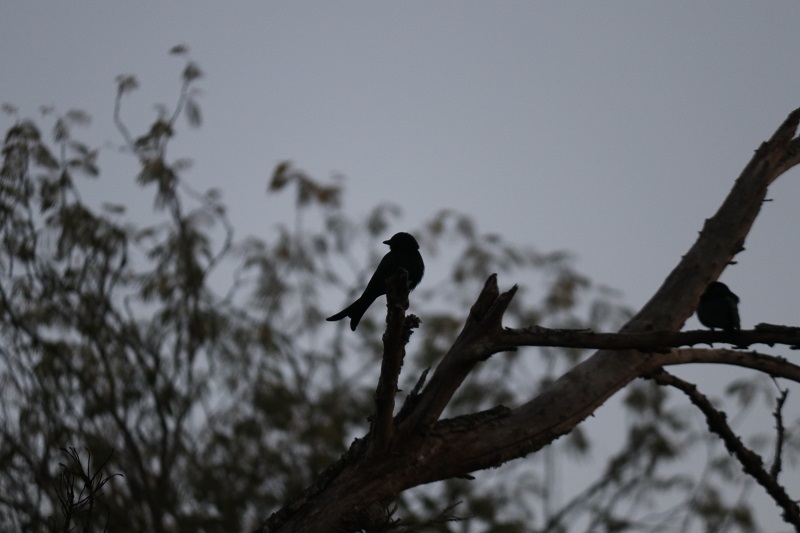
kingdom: Animalia
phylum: Chordata
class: Aves
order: Passeriformes
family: Dicruridae
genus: Dicrurus
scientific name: Dicrurus adsimilis
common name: Fork-tailed drongo
